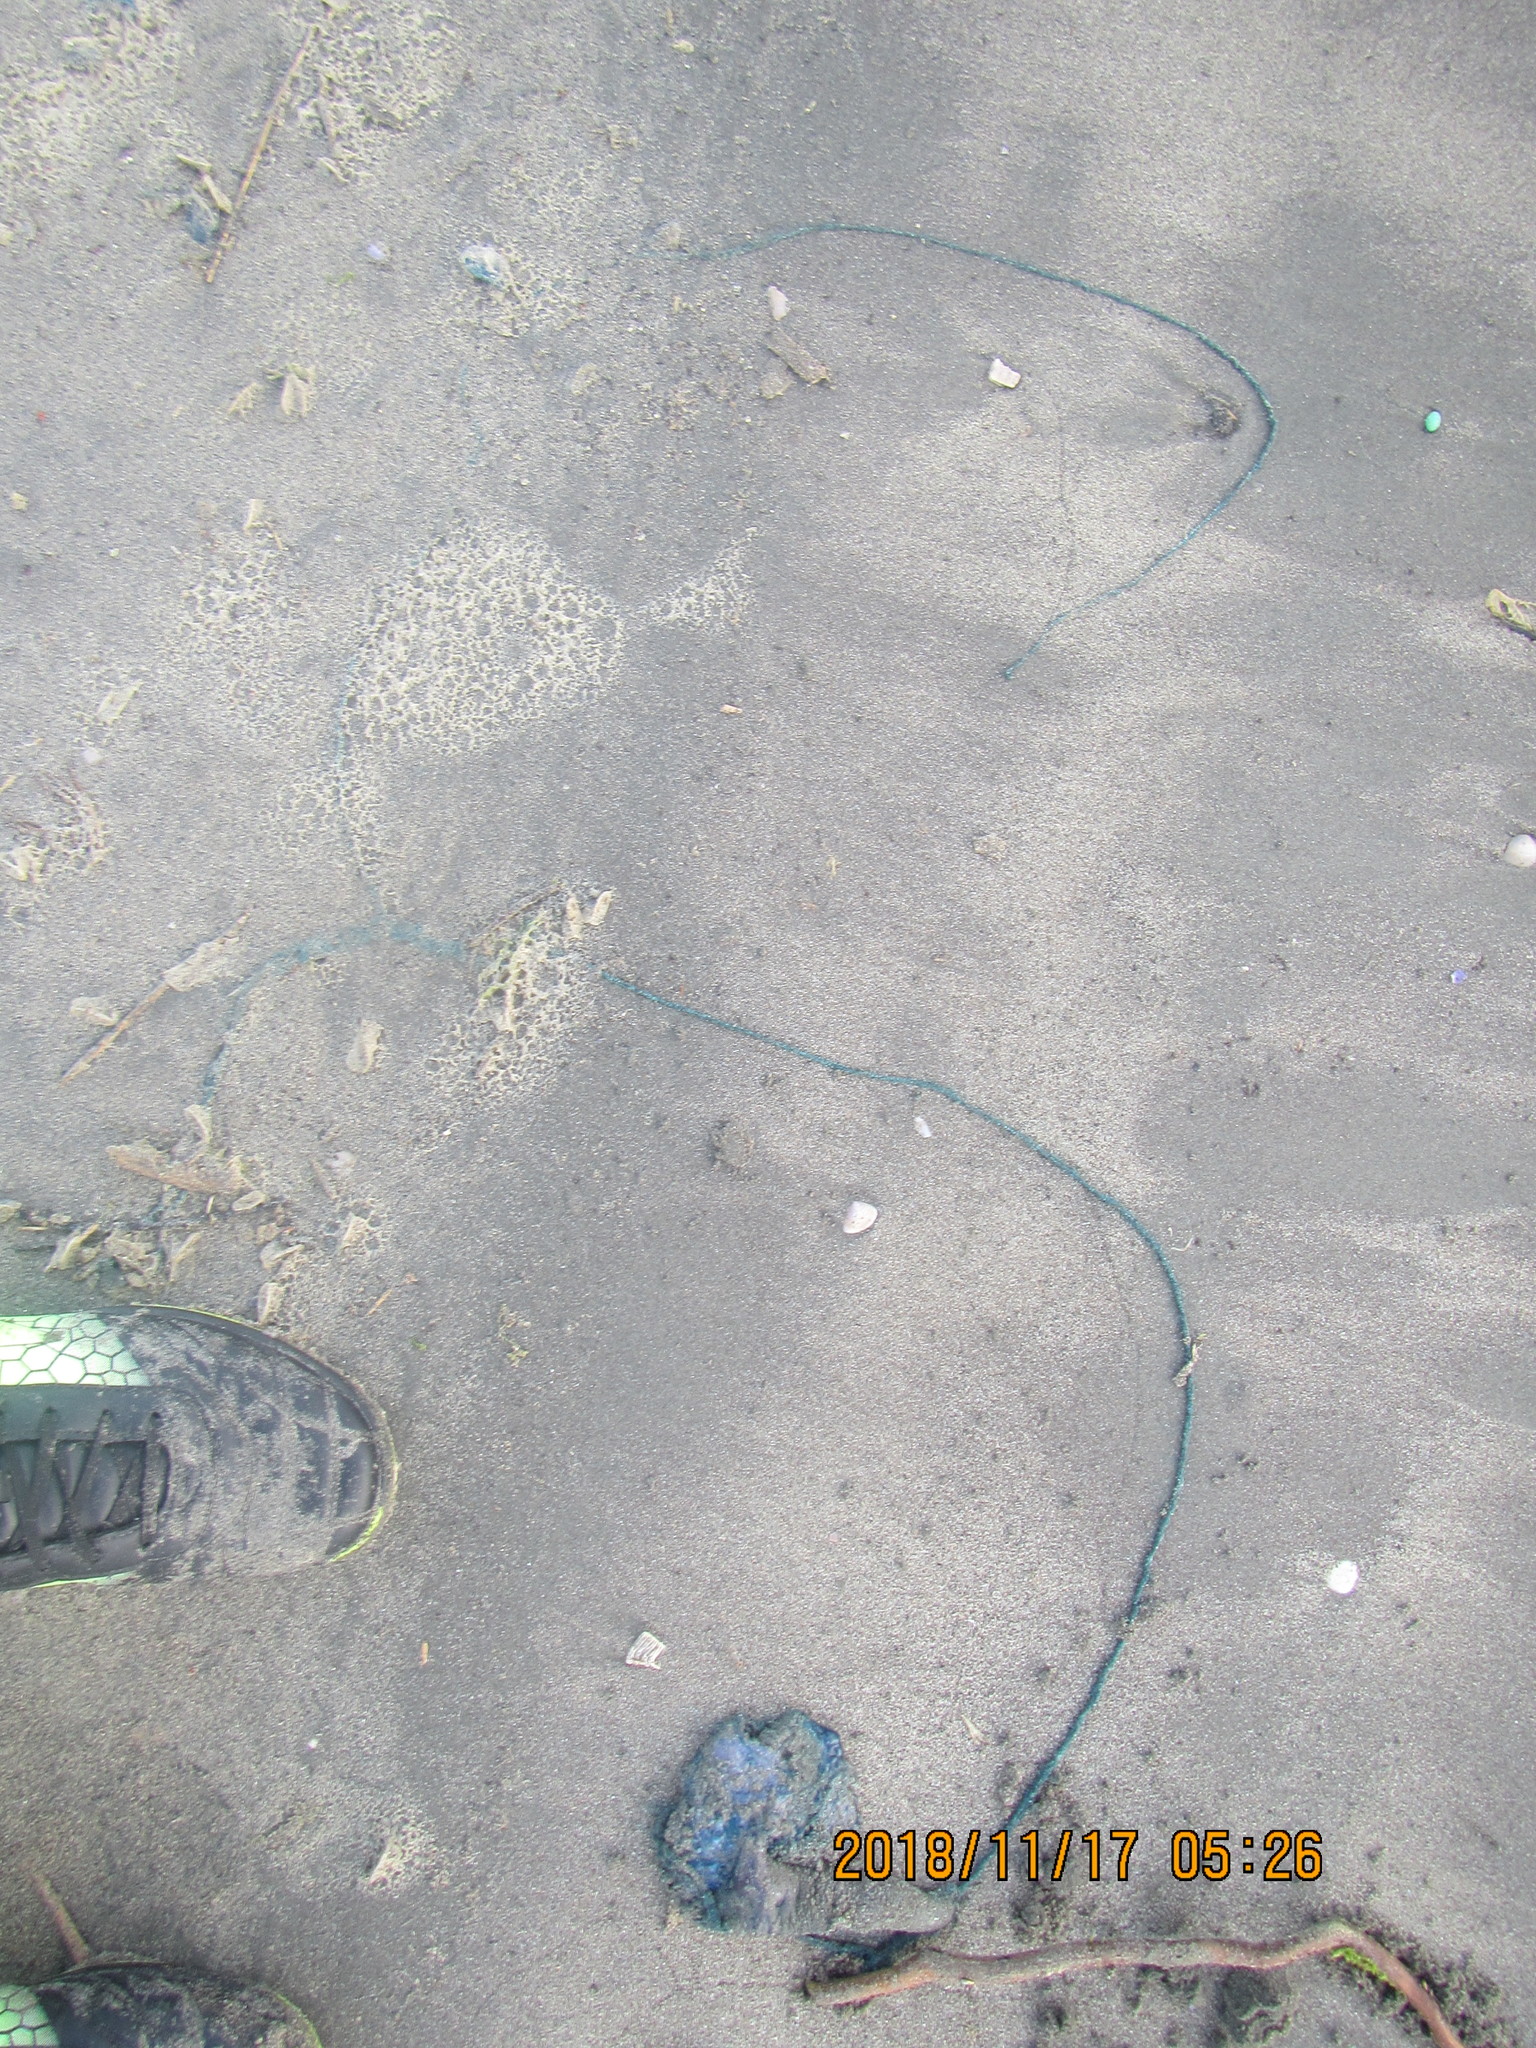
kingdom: Animalia
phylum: Cnidaria
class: Hydrozoa
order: Siphonophorae
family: Physaliidae
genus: Physalia
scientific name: Physalia physalis
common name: Portuguese man-of-war
